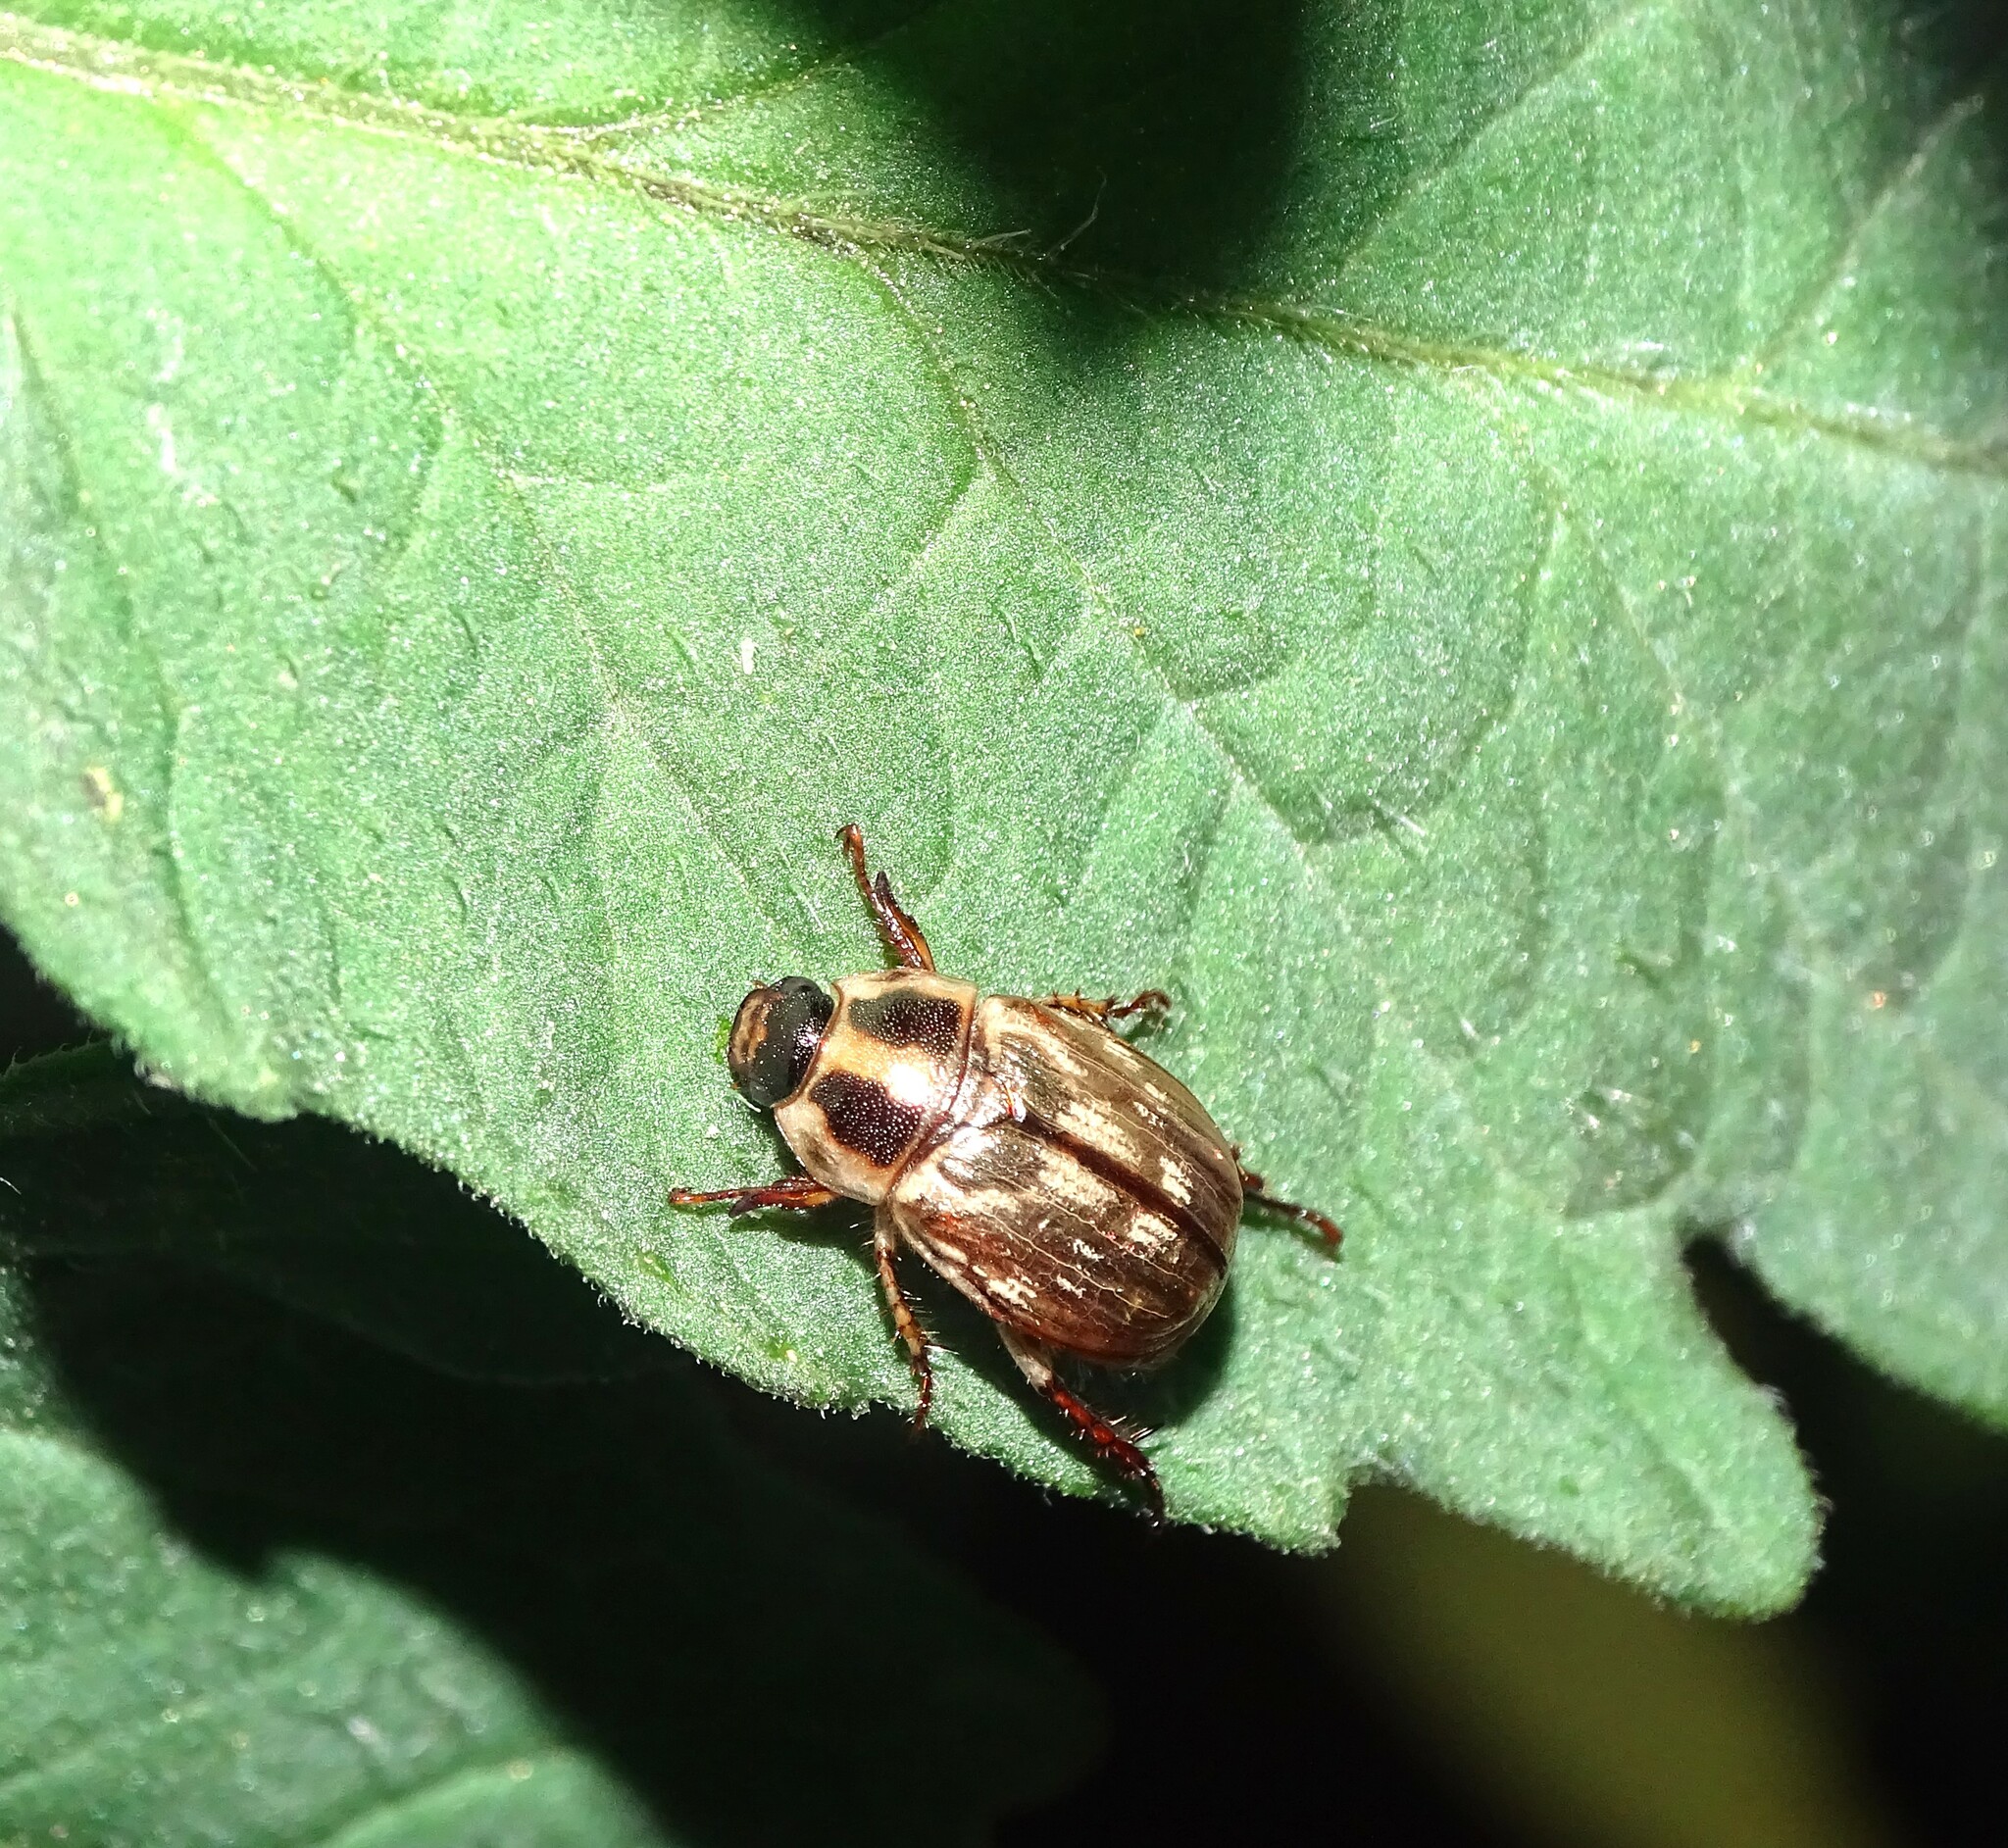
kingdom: Animalia
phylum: Arthropoda
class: Insecta
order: Coleoptera
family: Scarabaeidae
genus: Exomala
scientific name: Exomala orientalis
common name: Oriental beetle
